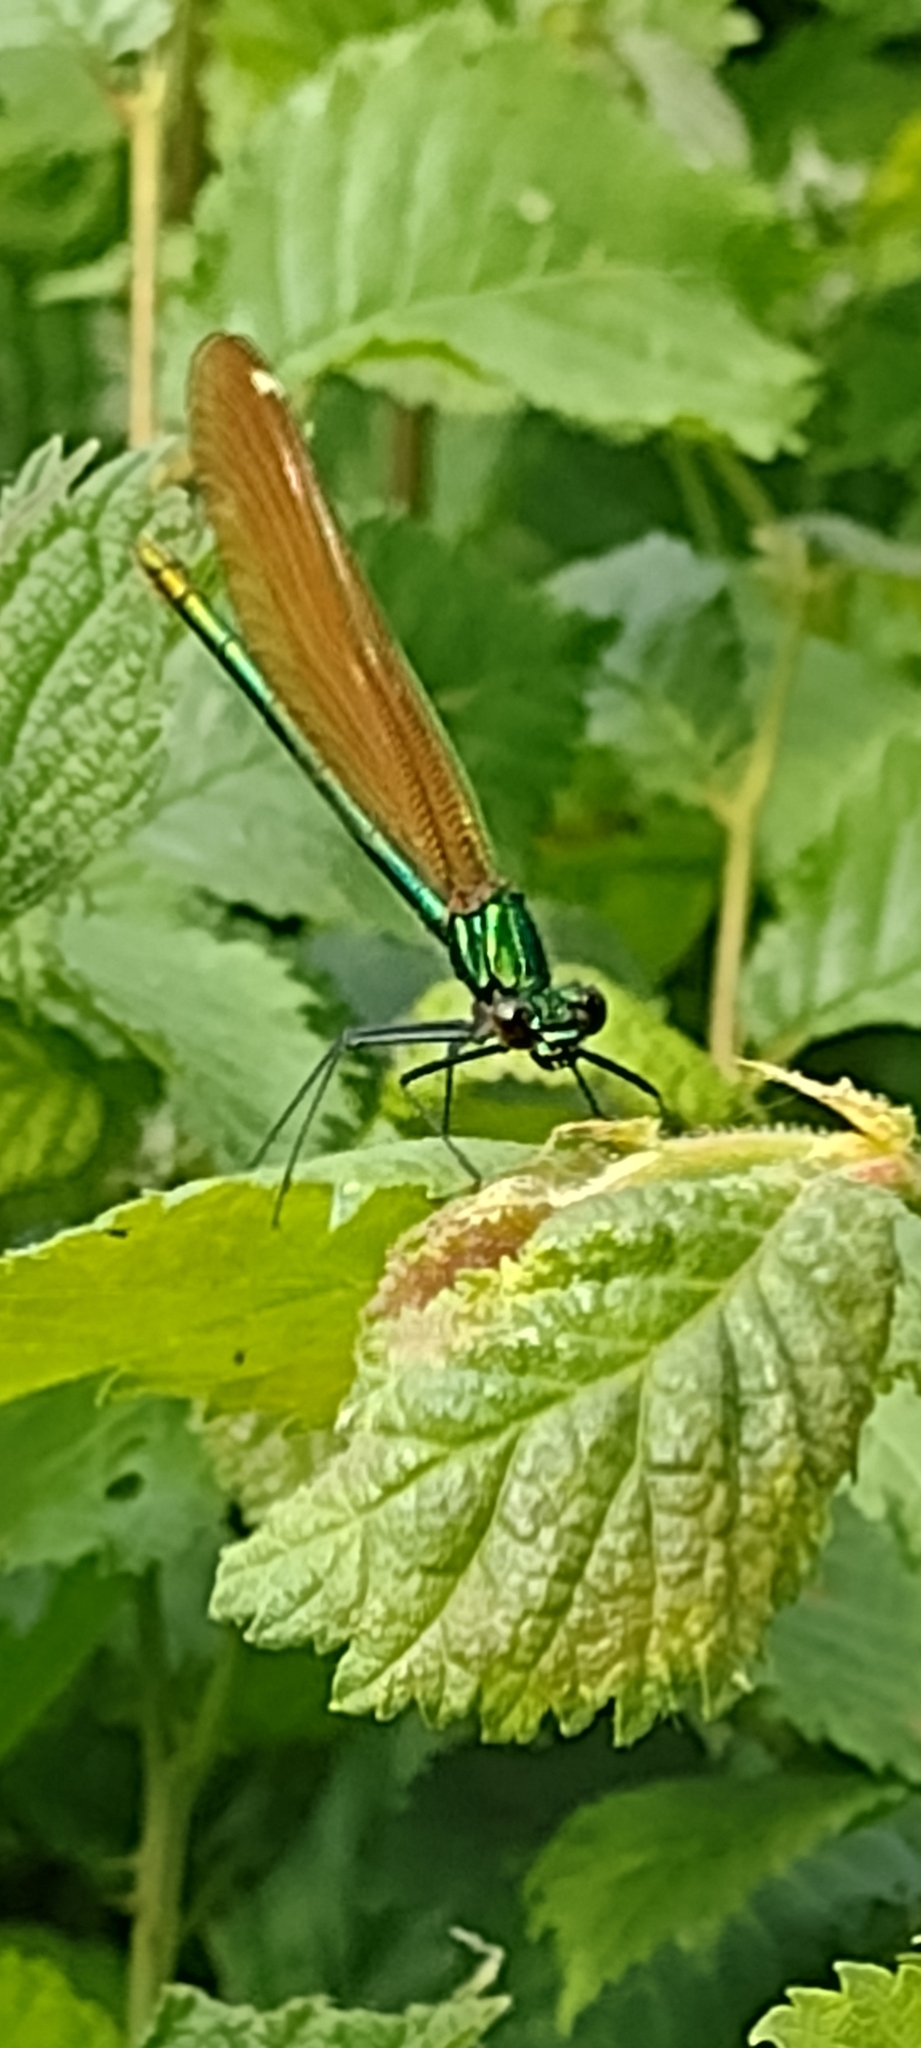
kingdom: Animalia
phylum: Arthropoda
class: Insecta
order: Odonata
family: Calopterygidae
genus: Calopteryx
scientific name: Calopteryx virgo
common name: Beautiful demoiselle
